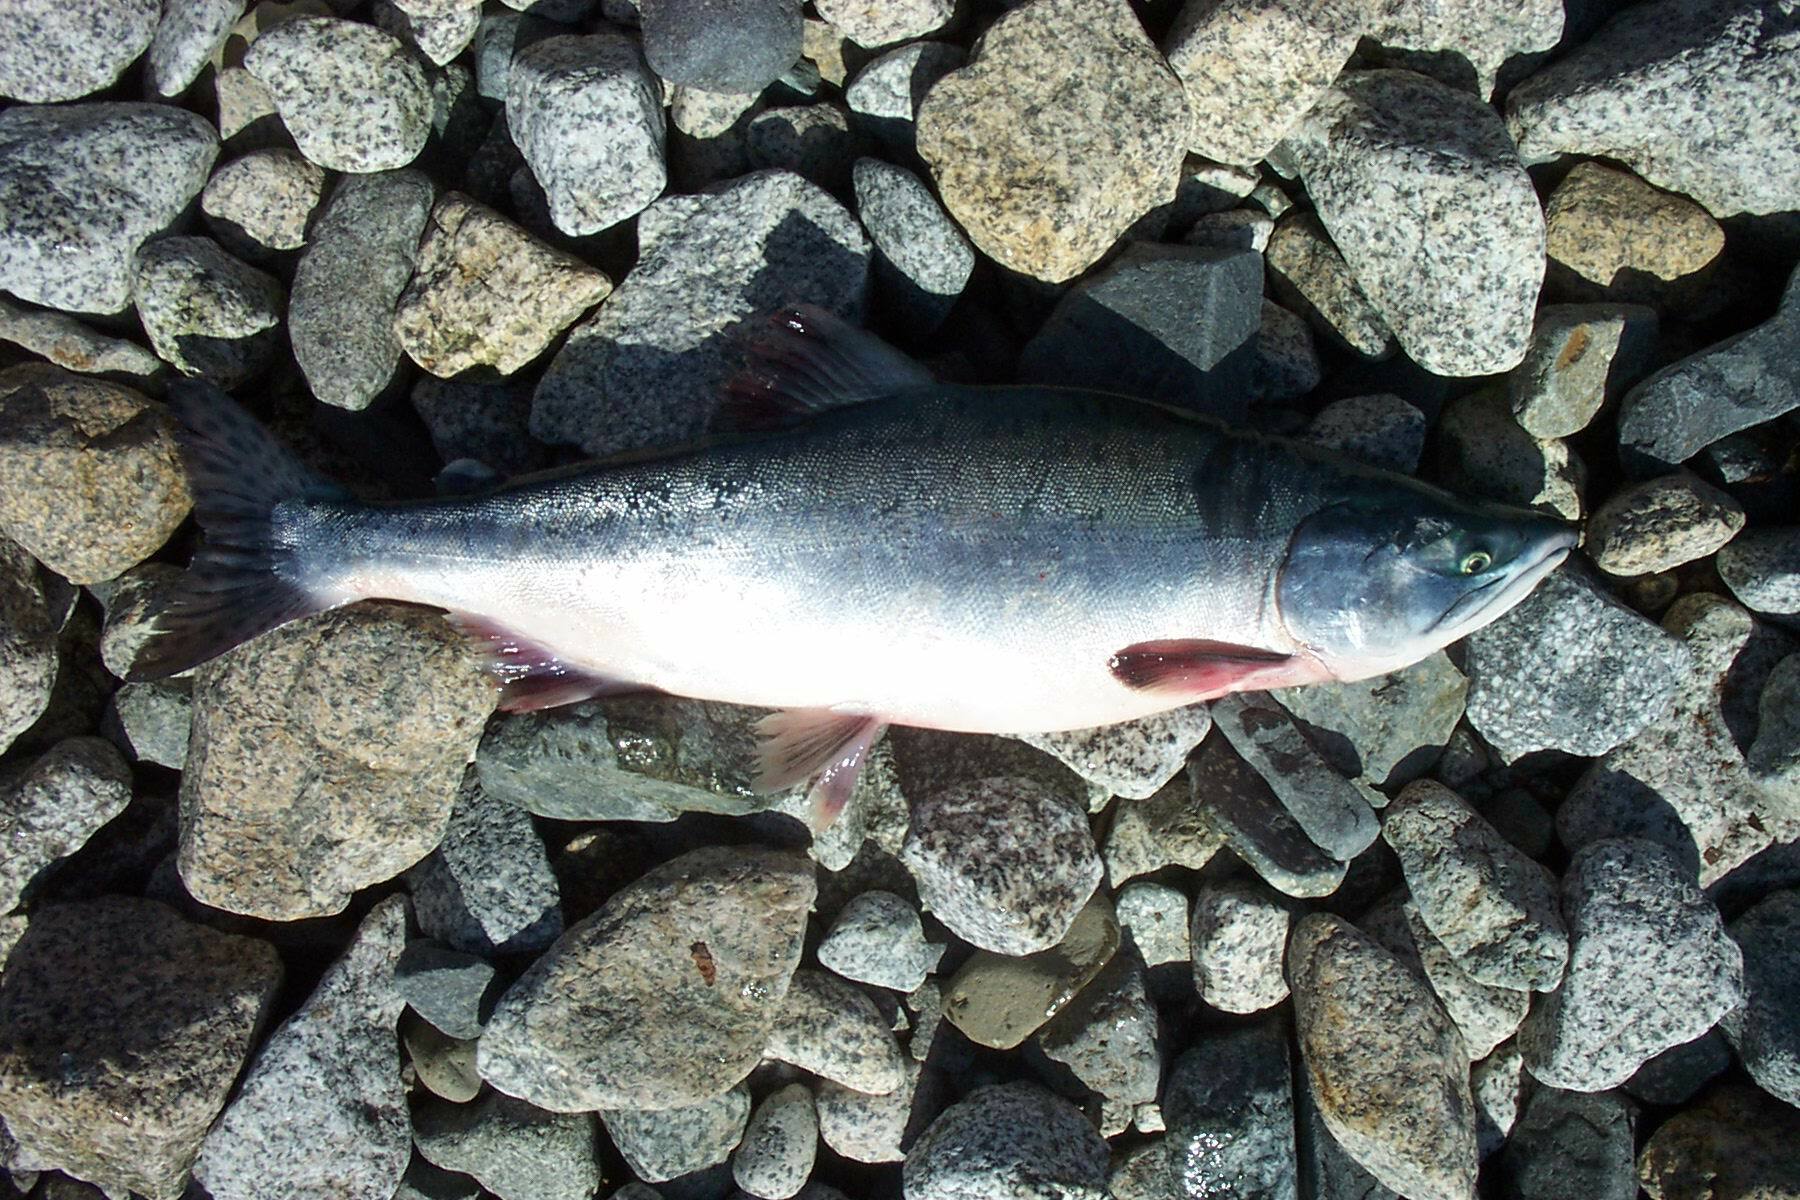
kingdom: Animalia
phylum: Chordata
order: Salmoniformes
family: Salmonidae
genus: Oncorhynchus
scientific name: Oncorhynchus gorbuscha
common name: Humpback salmon
